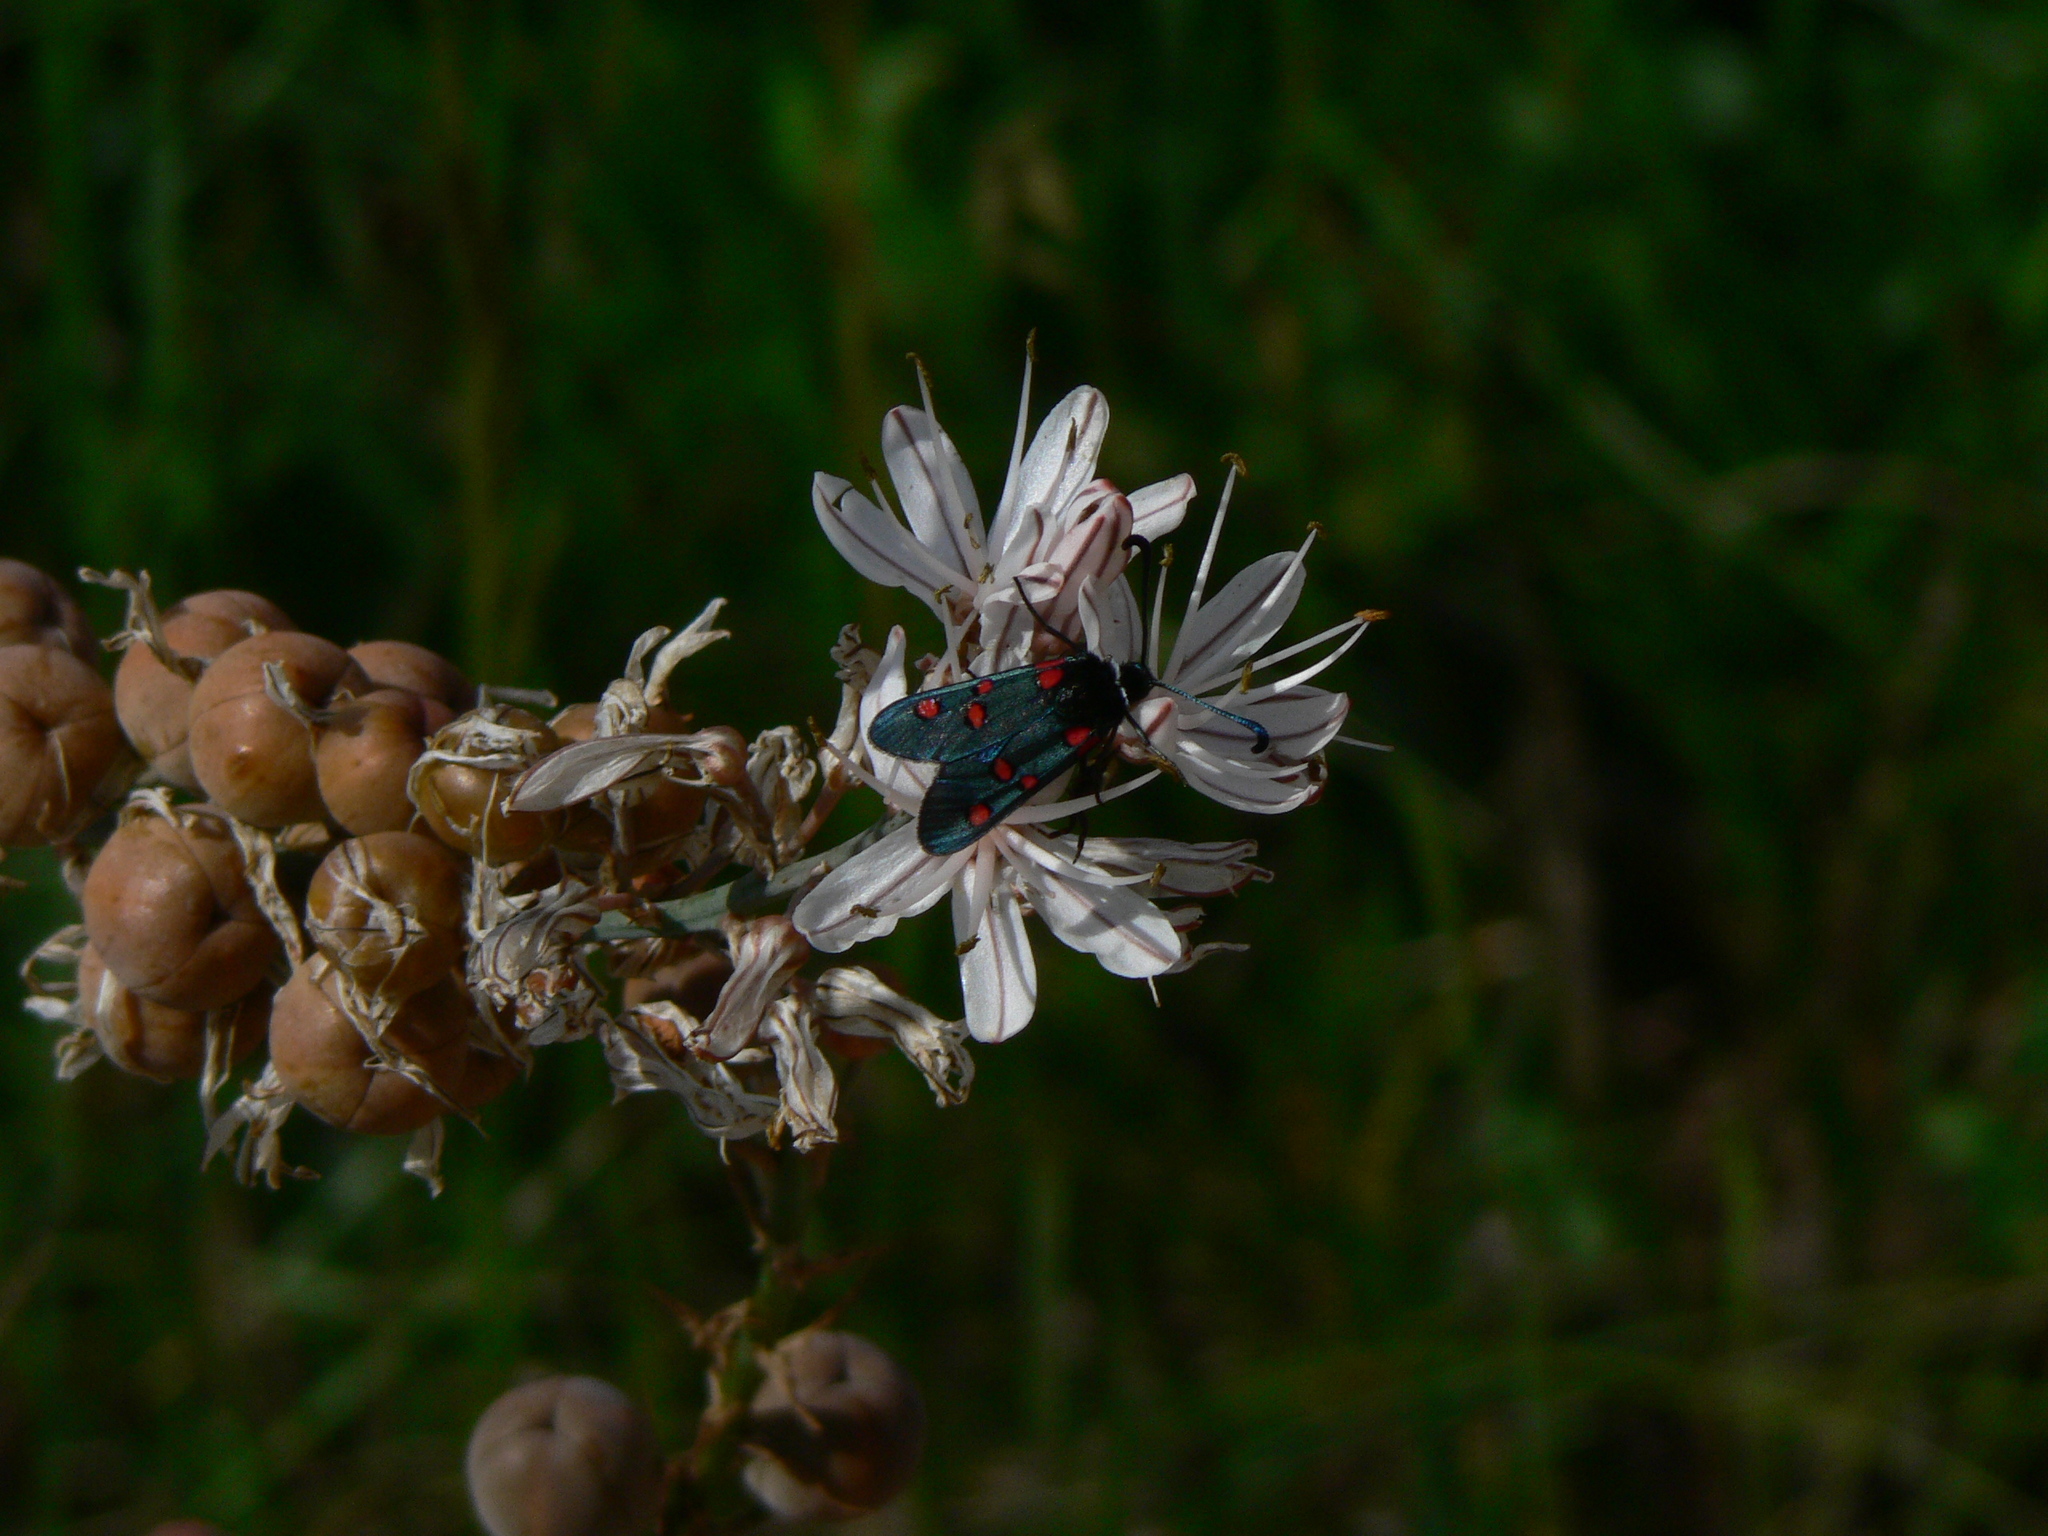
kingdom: Animalia
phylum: Arthropoda
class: Insecta
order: Lepidoptera
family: Zygaenidae
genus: Zygaena
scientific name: Zygaena lavandulae
